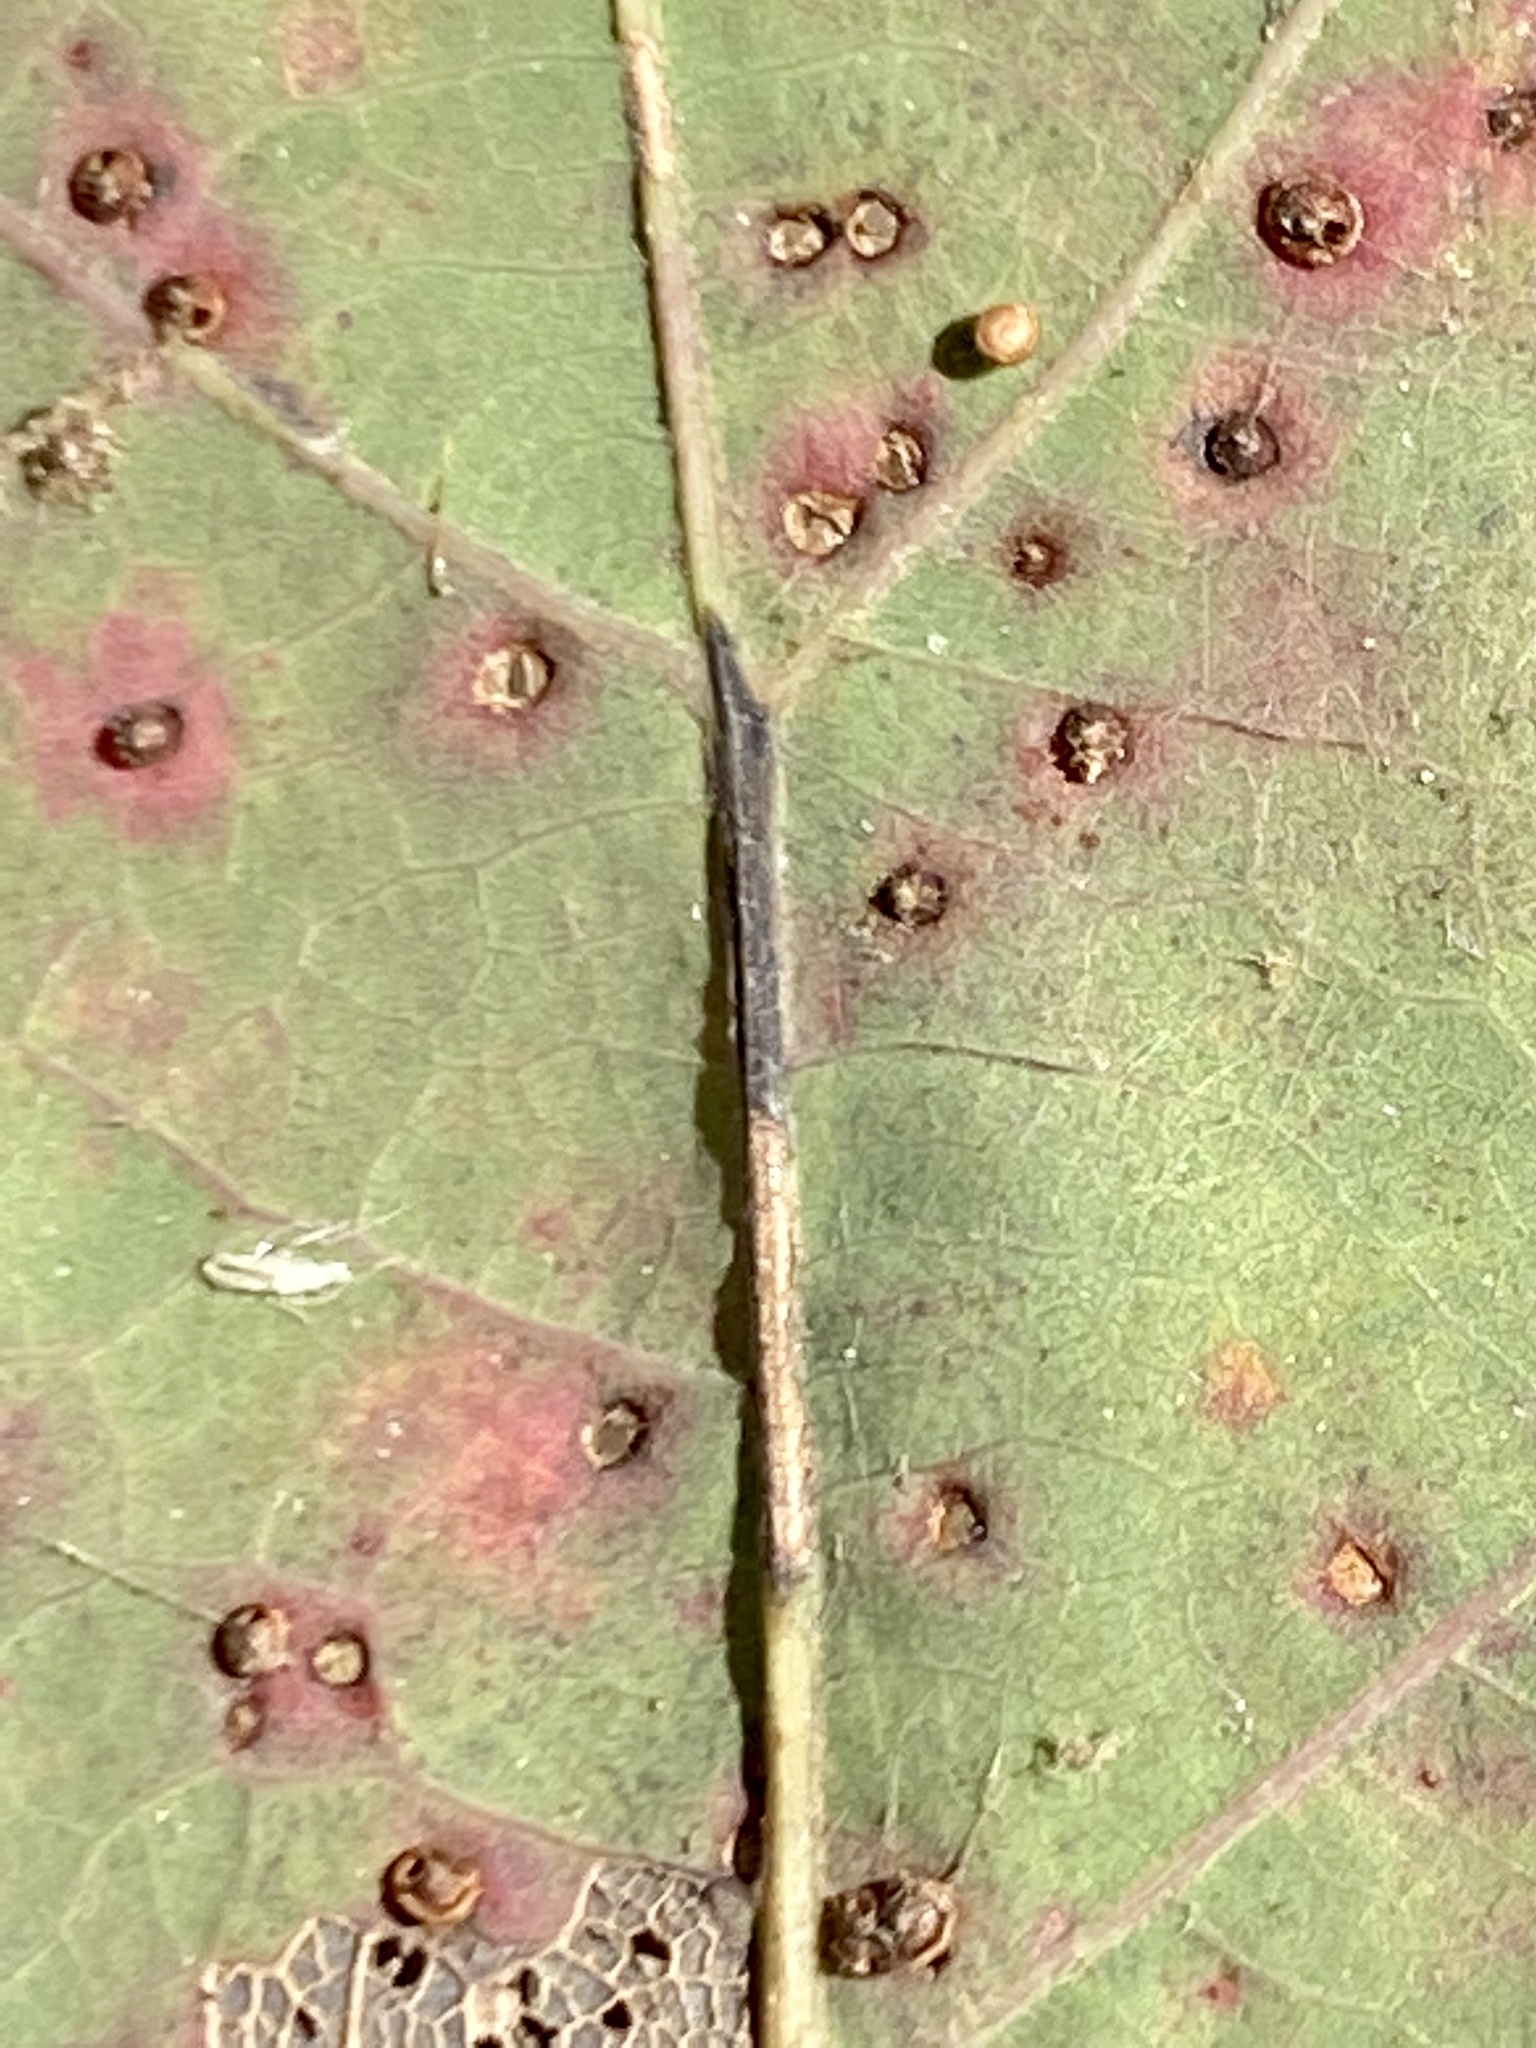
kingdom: Animalia
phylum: Arthropoda
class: Insecta
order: Hymenoptera
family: Cynipidae
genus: Neuroterus
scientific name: Neuroterus
